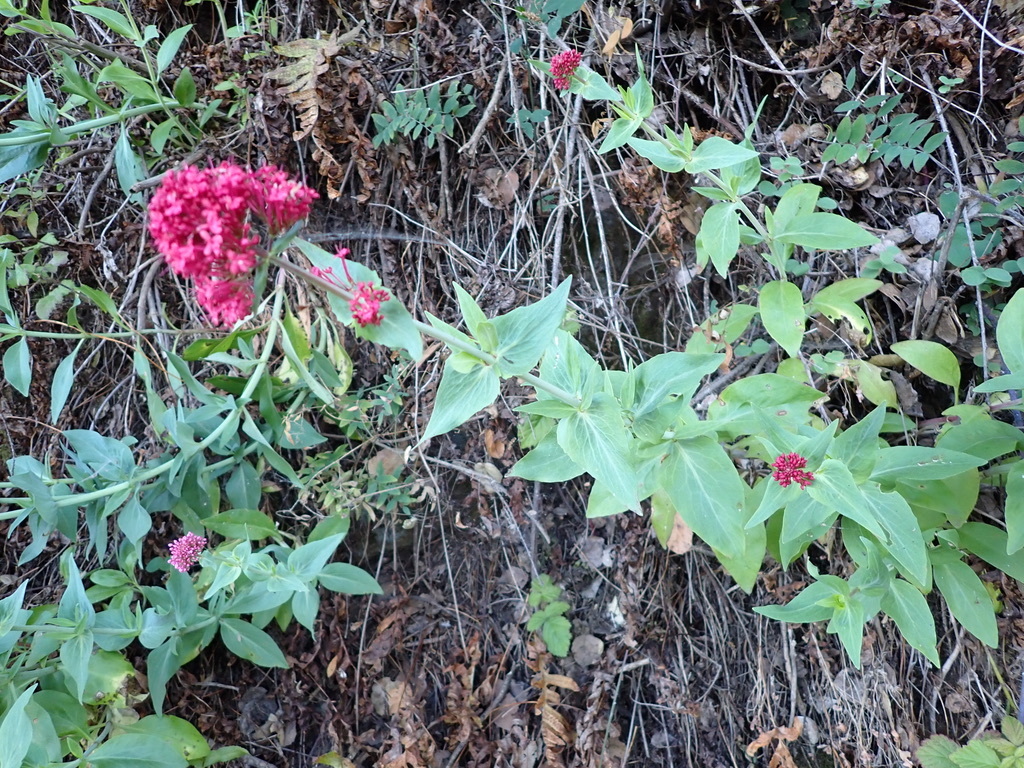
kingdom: Plantae
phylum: Tracheophyta
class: Magnoliopsida
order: Dipsacales
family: Caprifoliaceae
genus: Centranthus
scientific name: Centranthus ruber
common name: Red valerian
